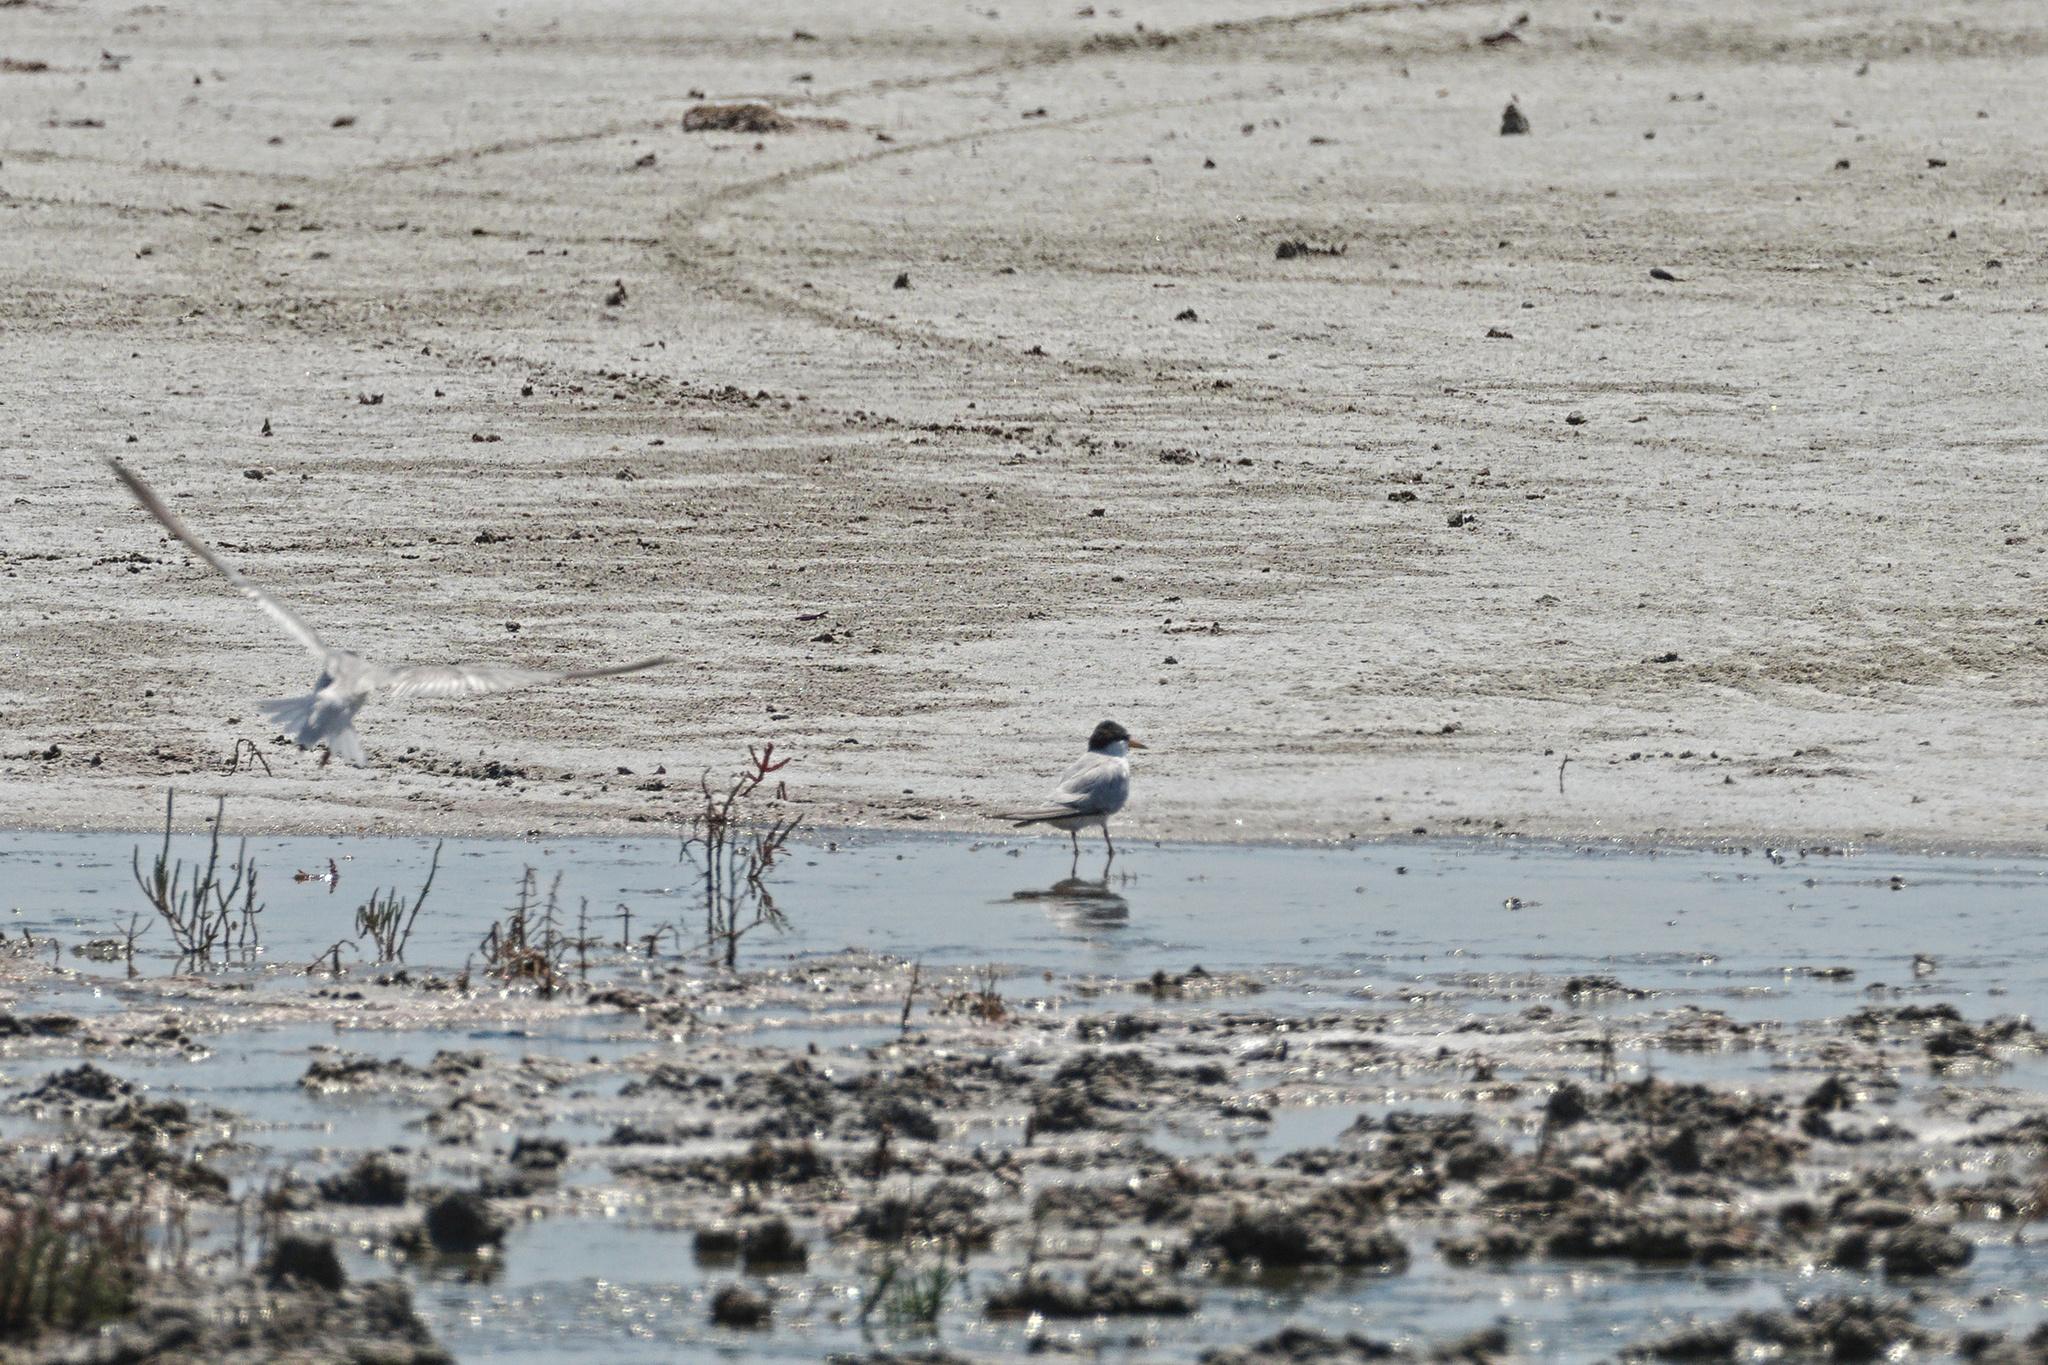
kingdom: Animalia
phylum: Chordata
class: Aves
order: Charadriiformes
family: Laridae
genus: Sternula
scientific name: Sternula albifrons
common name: Little tern
